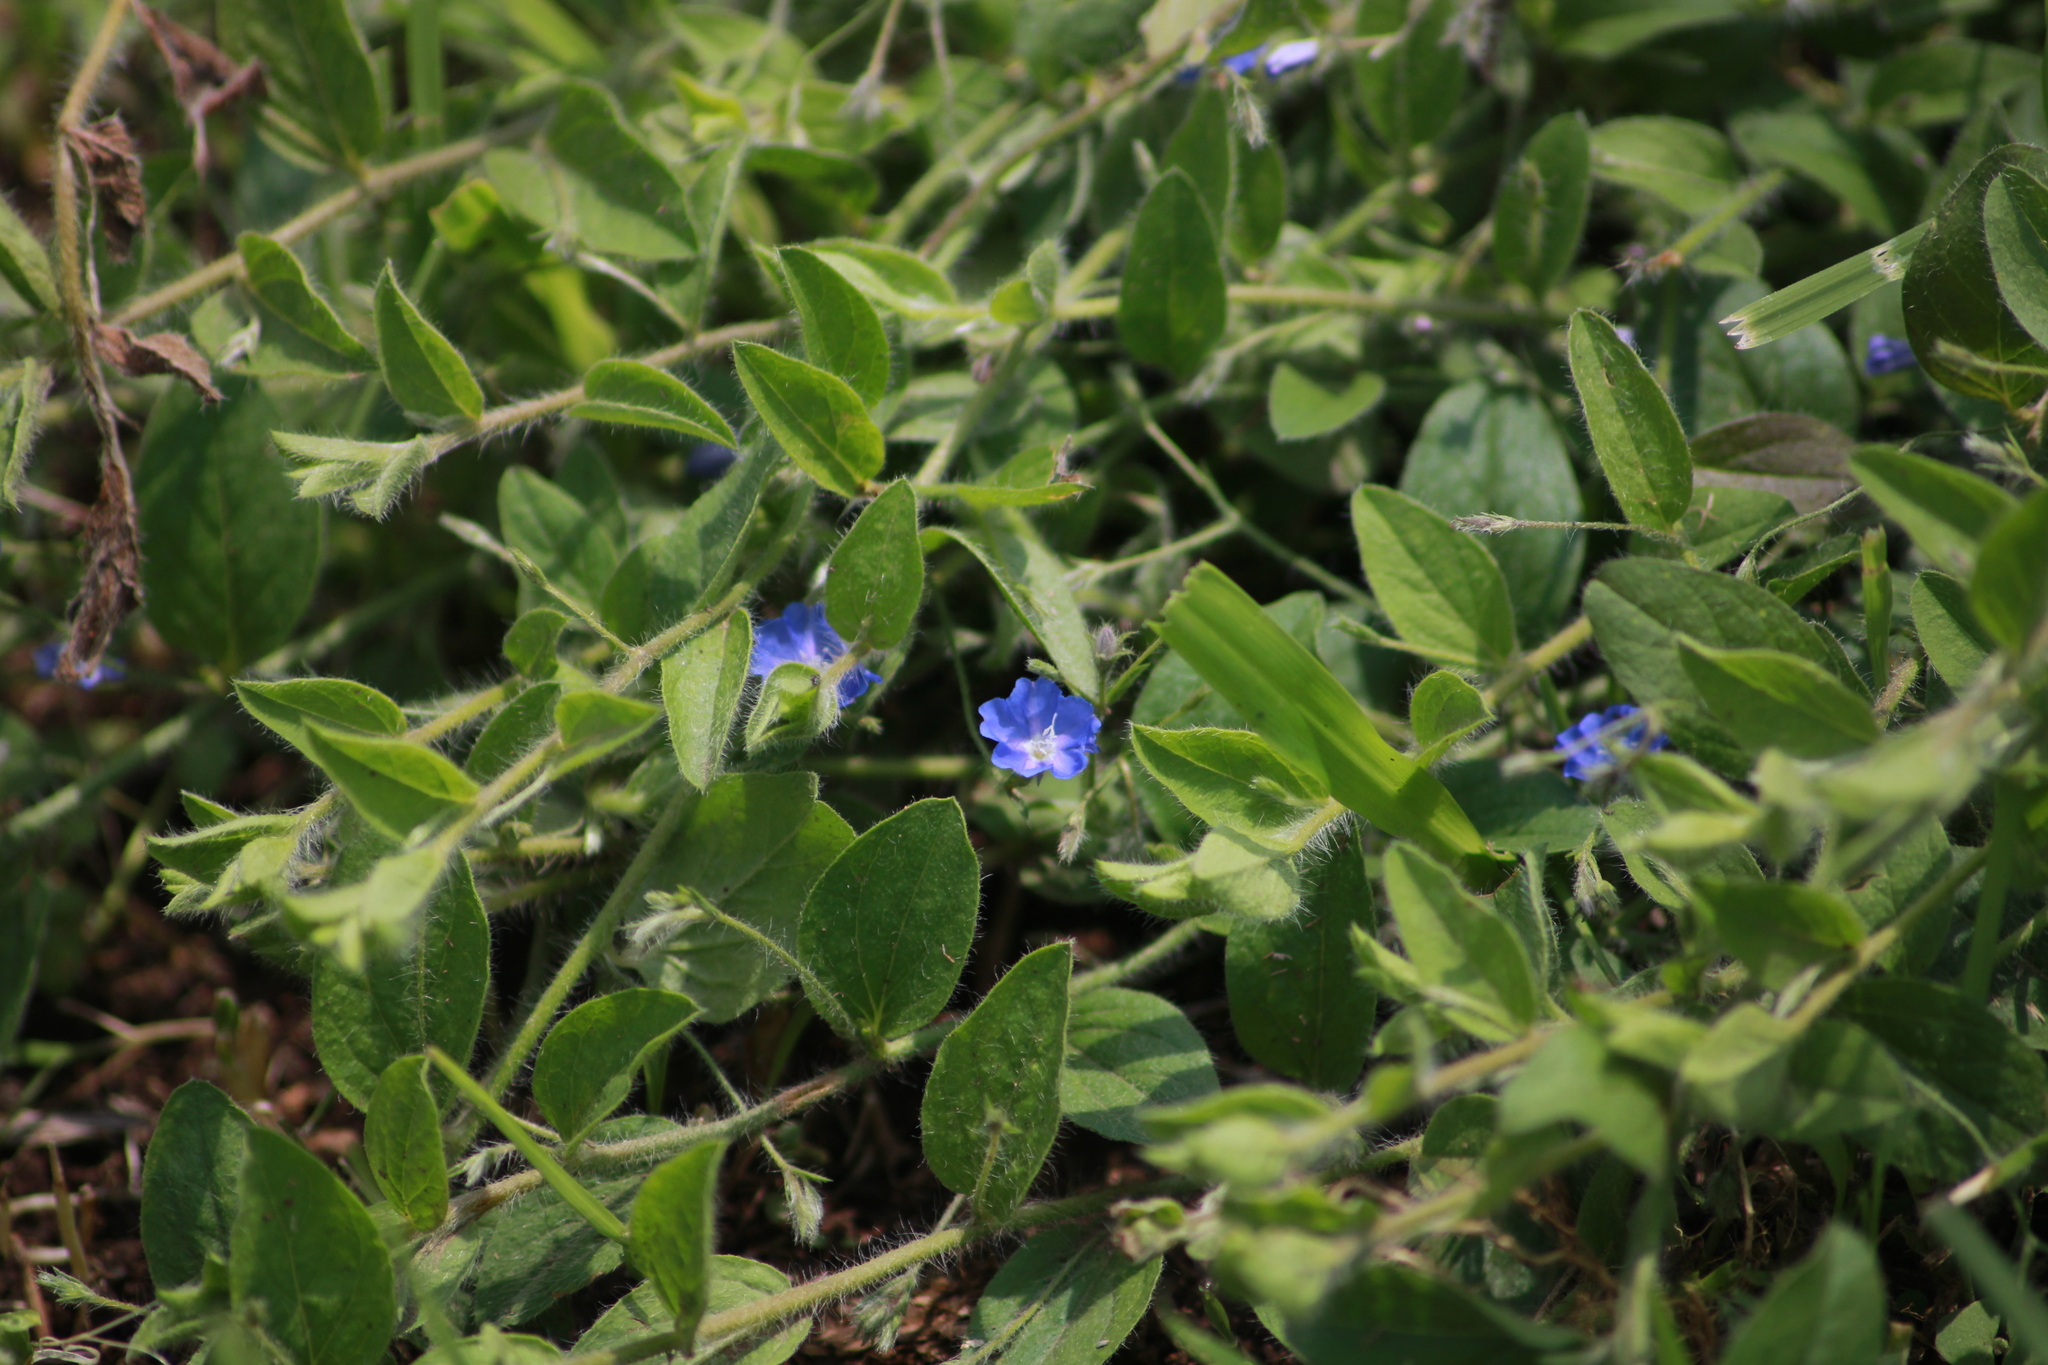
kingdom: Plantae
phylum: Tracheophyta
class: Magnoliopsida
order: Solanales
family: Convolvulaceae
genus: Evolvulus
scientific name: Evolvulus alsinoides
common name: Slender dwarf morning-glory
